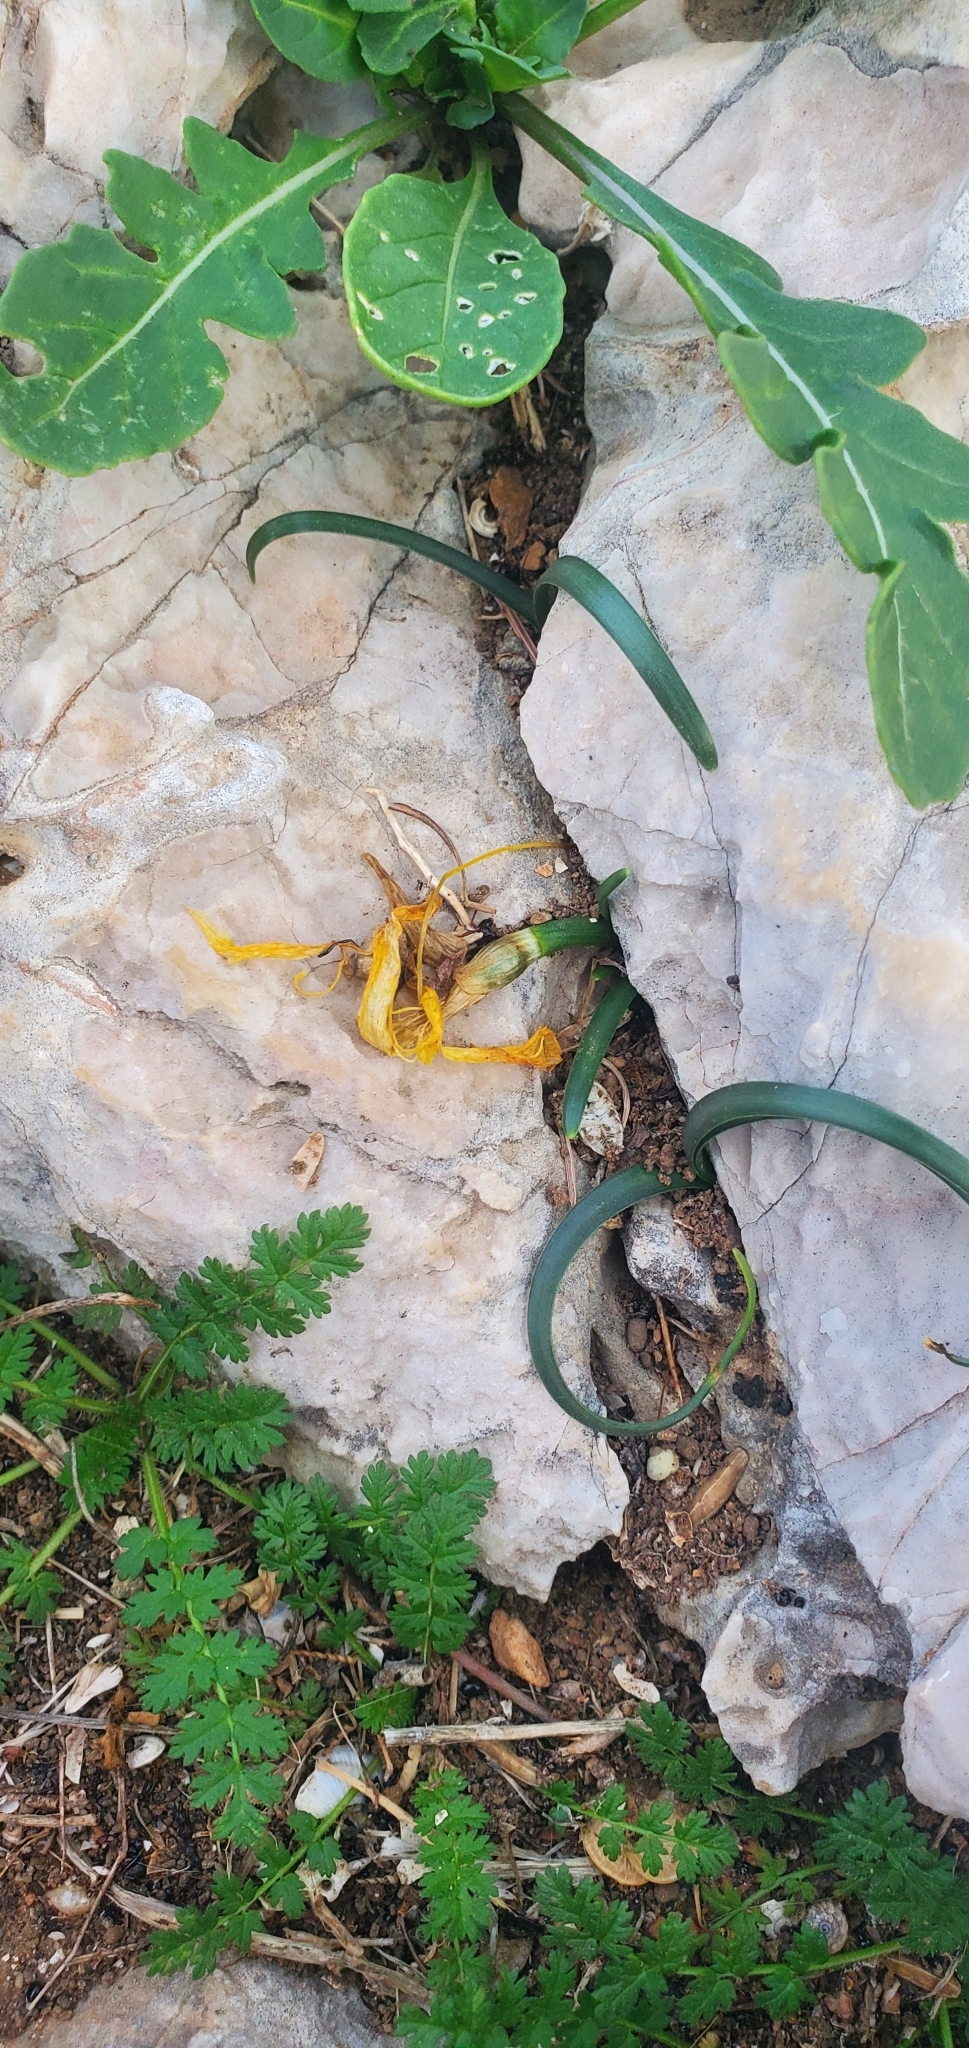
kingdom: Plantae
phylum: Tracheophyta
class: Liliopsida
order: Asparagales
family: Amaryllidaceae
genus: Sternbergia
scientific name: Sternbergia lutea
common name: Winter daffodil
